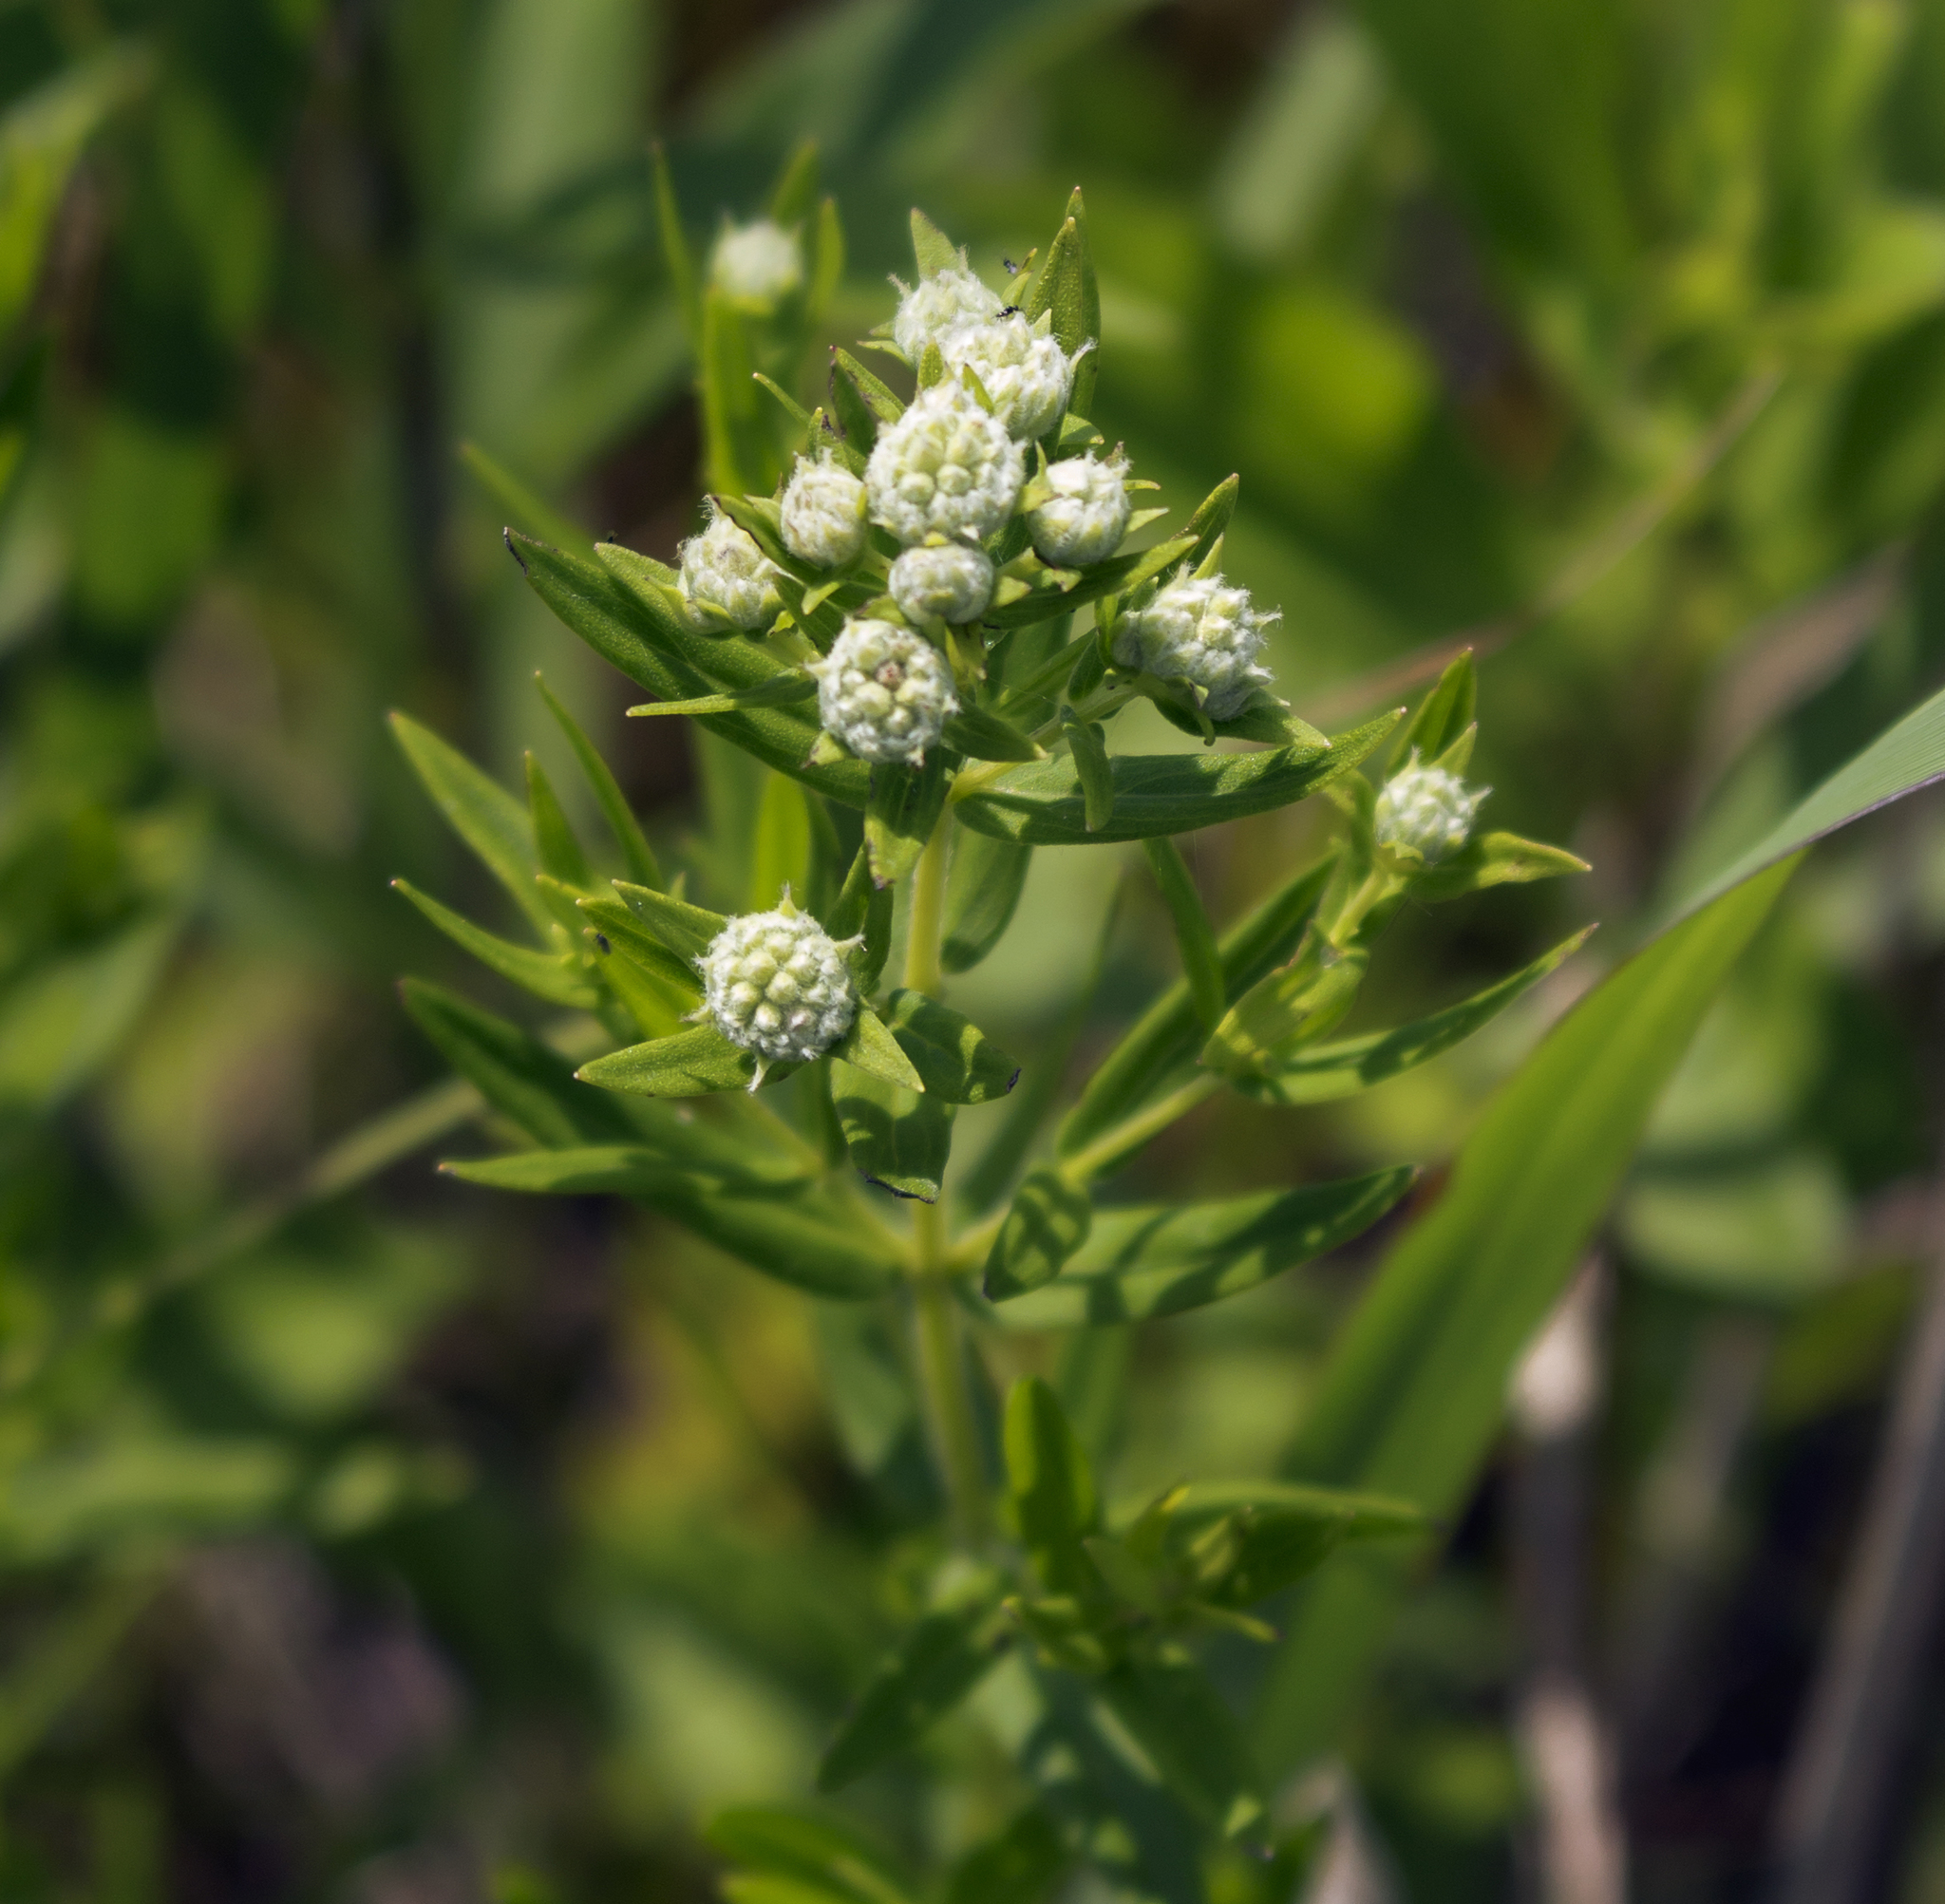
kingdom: Plantae
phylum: Tracheophyta
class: Magnoliopsida
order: Lamiales
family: Lamiaceae
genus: Pycnanthemum
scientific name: Pycnanthemum virginianum
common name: Virginia mountain-mint
